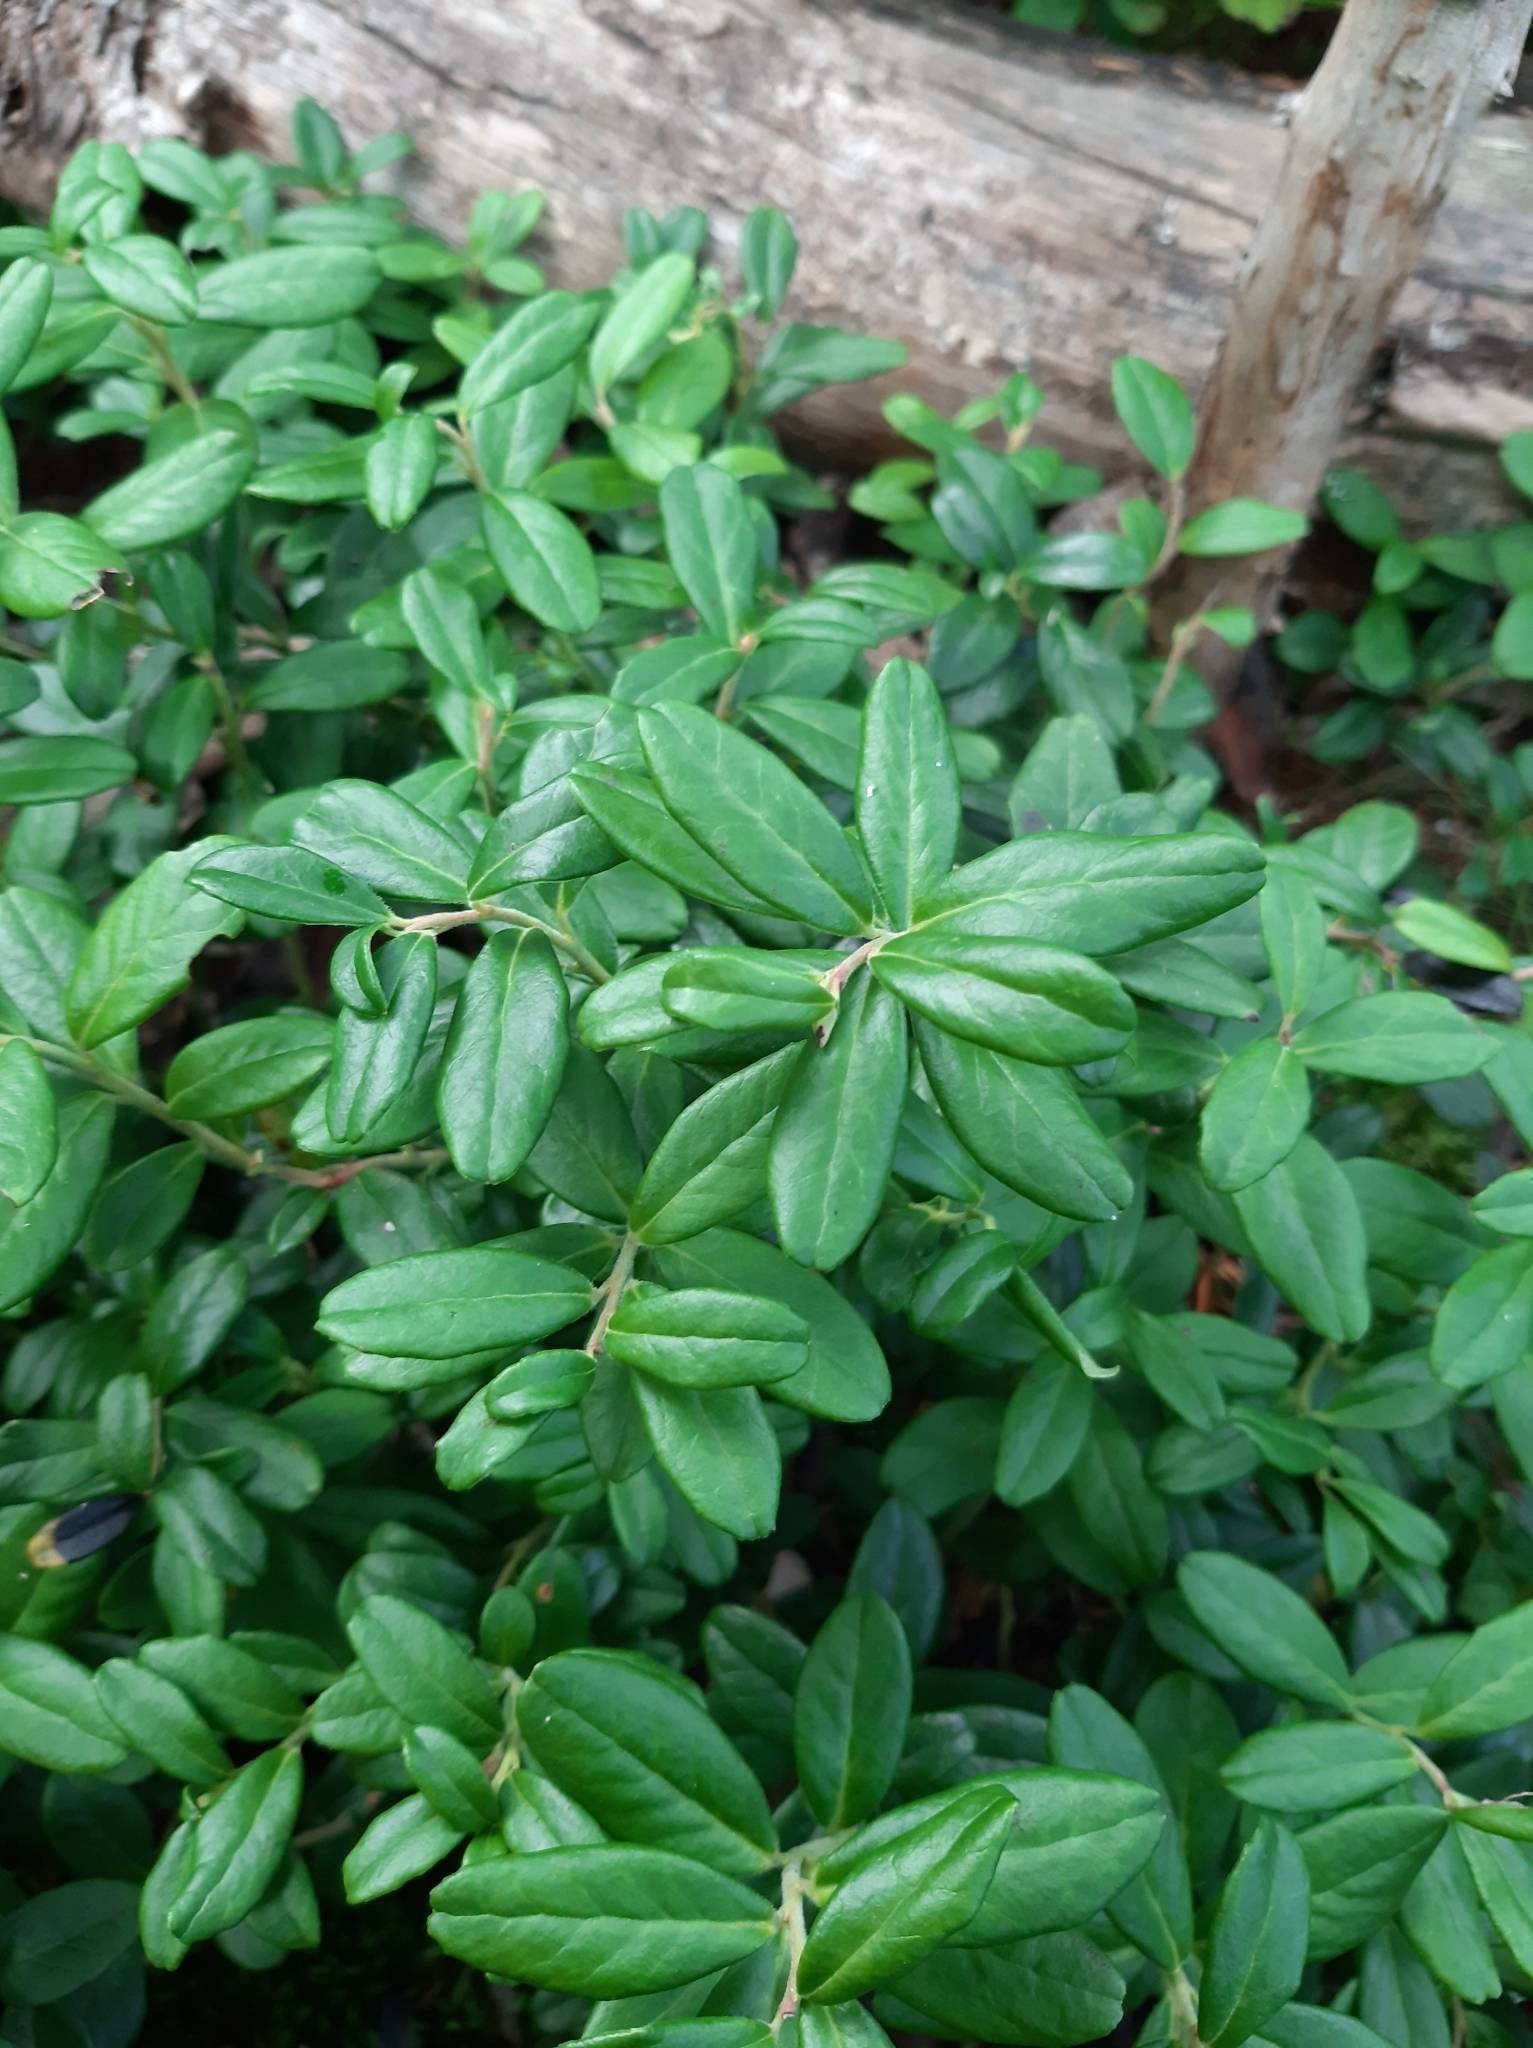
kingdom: Plantae
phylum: Tracheophyta
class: Magnoliopsida
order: Ericales
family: Ericaceae
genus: Vaccinium
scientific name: Vaccinium vitis-idaea
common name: Cowberry
